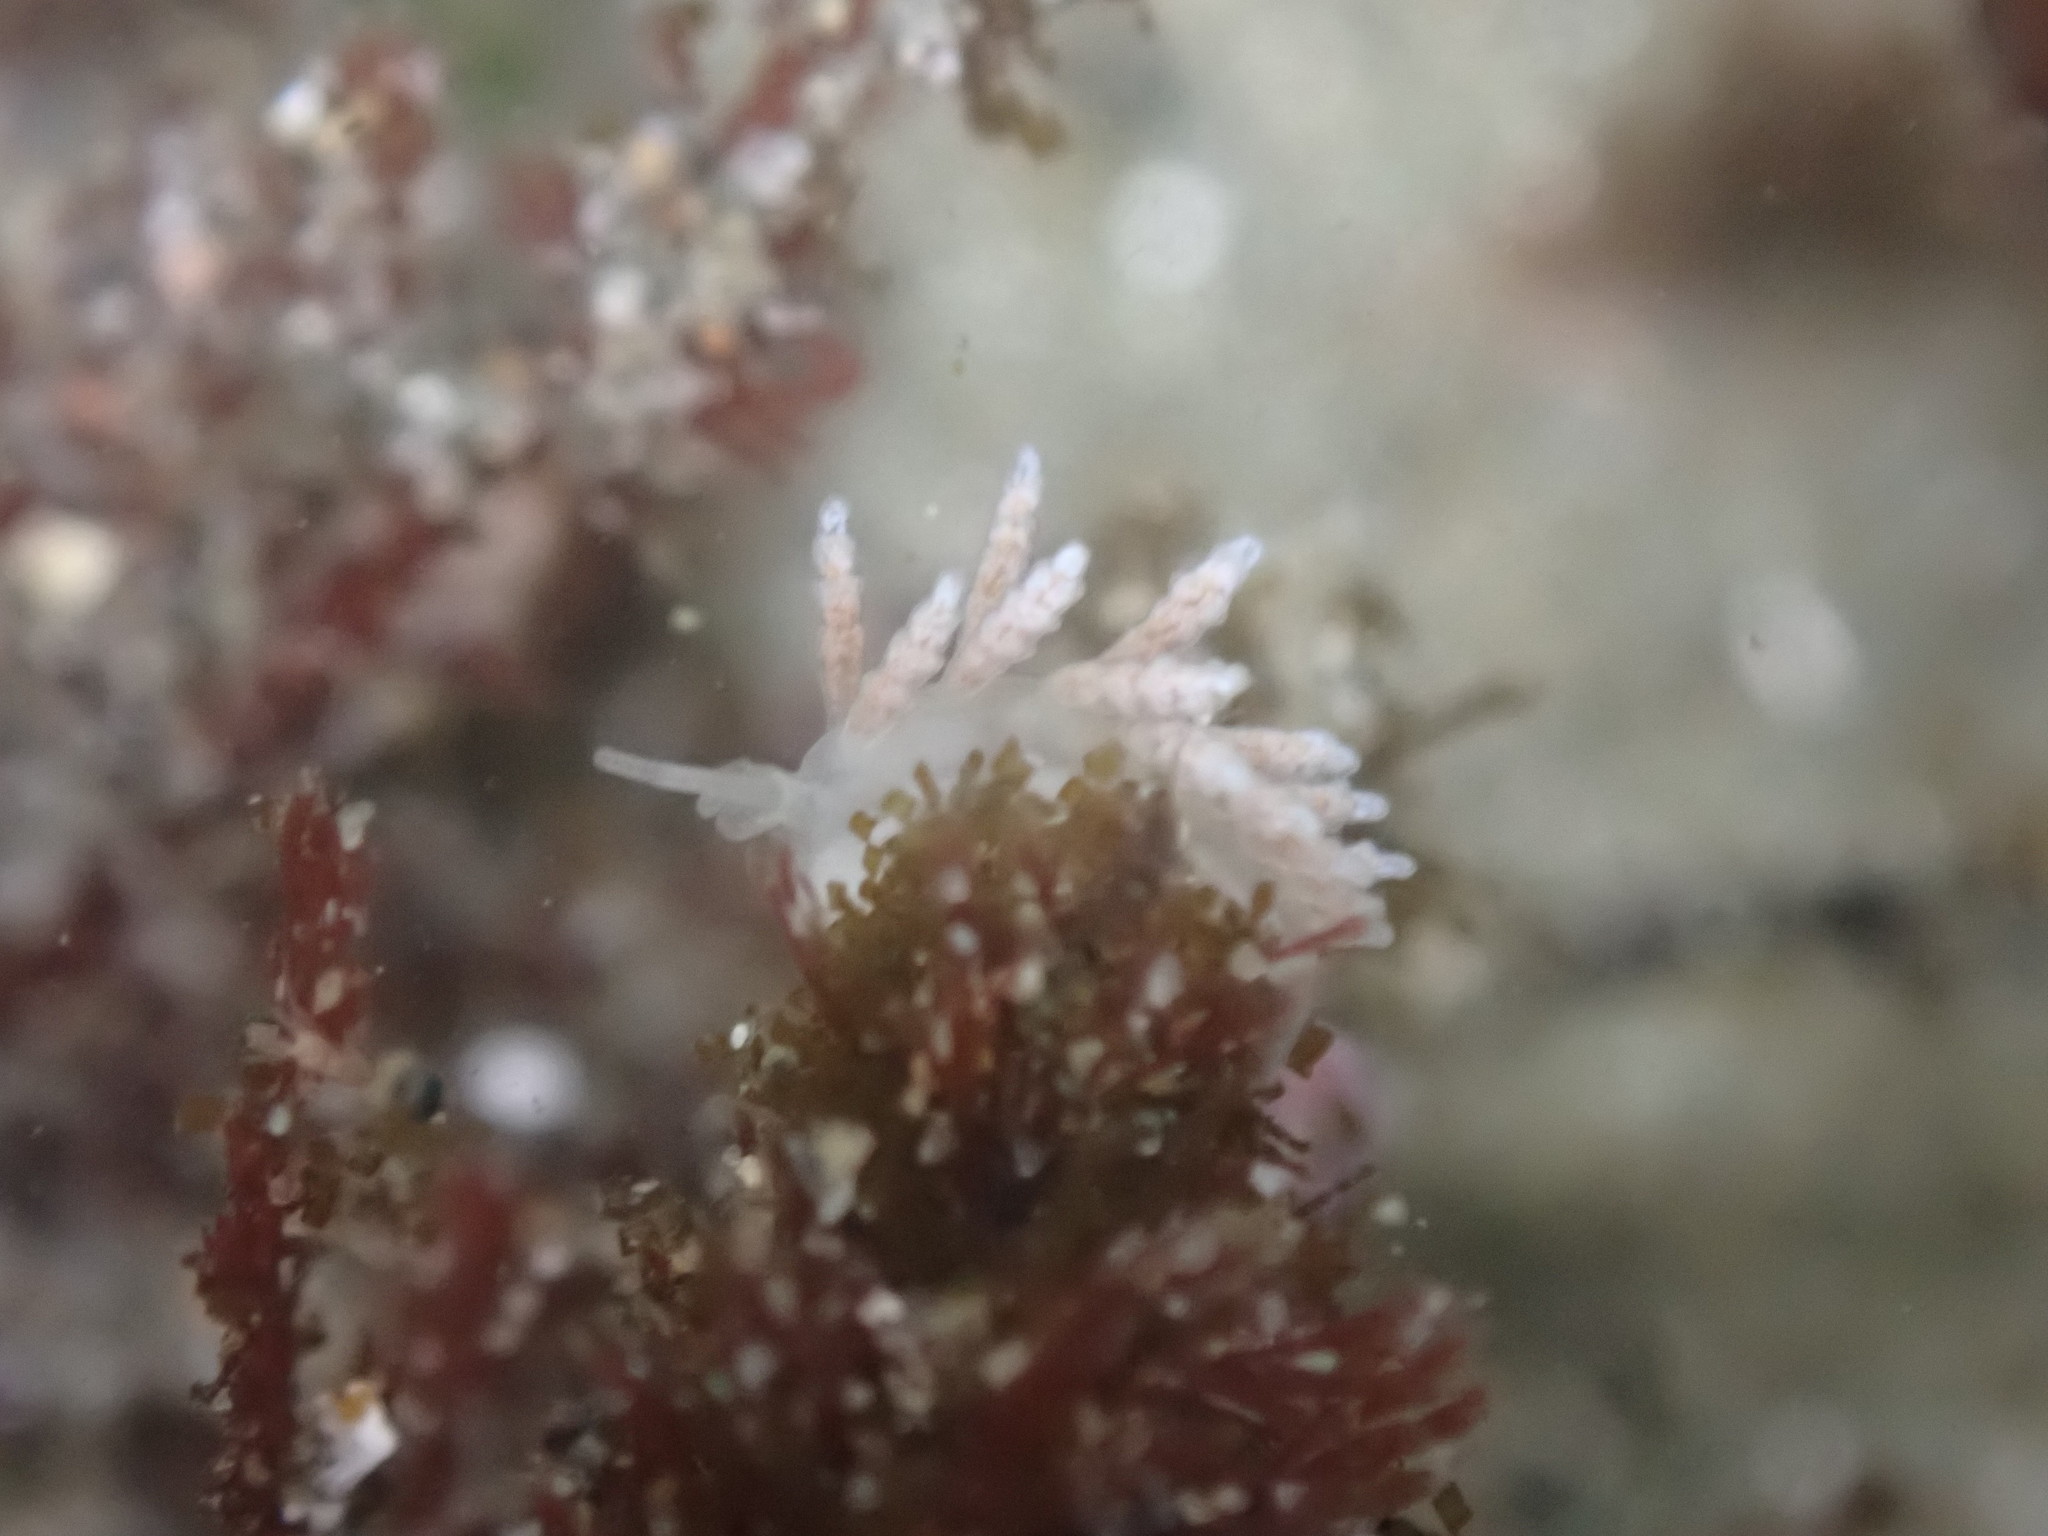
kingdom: Animalia
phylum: Mollusca
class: Gastropoda
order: Nudibranchia
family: Dotidae
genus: Doto
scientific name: Doto amyra
